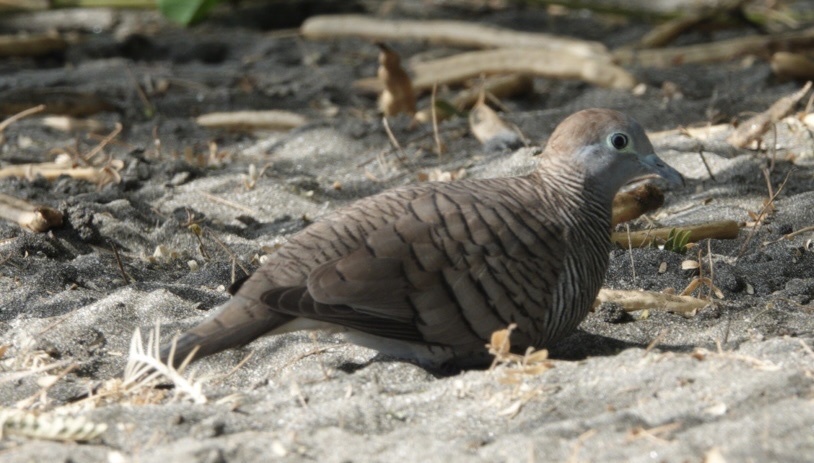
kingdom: Animalia
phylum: Chordata
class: Aves
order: Columbiformes
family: Columbidae
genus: Geopelia
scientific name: Geopelia striata
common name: Zebra dove
